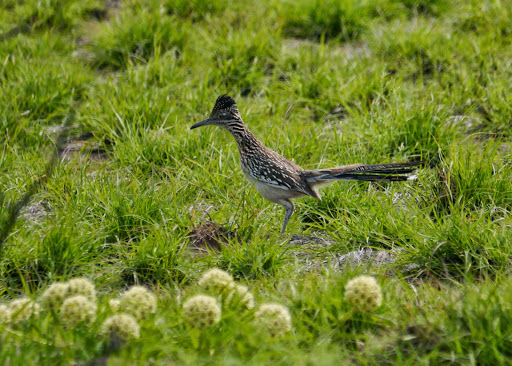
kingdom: Animalia
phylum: Chordata
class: Aves
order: Cuculiformes
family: Cuculidae
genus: Geococcyx
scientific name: Geococcyx californianus
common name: Greater roadrunner
